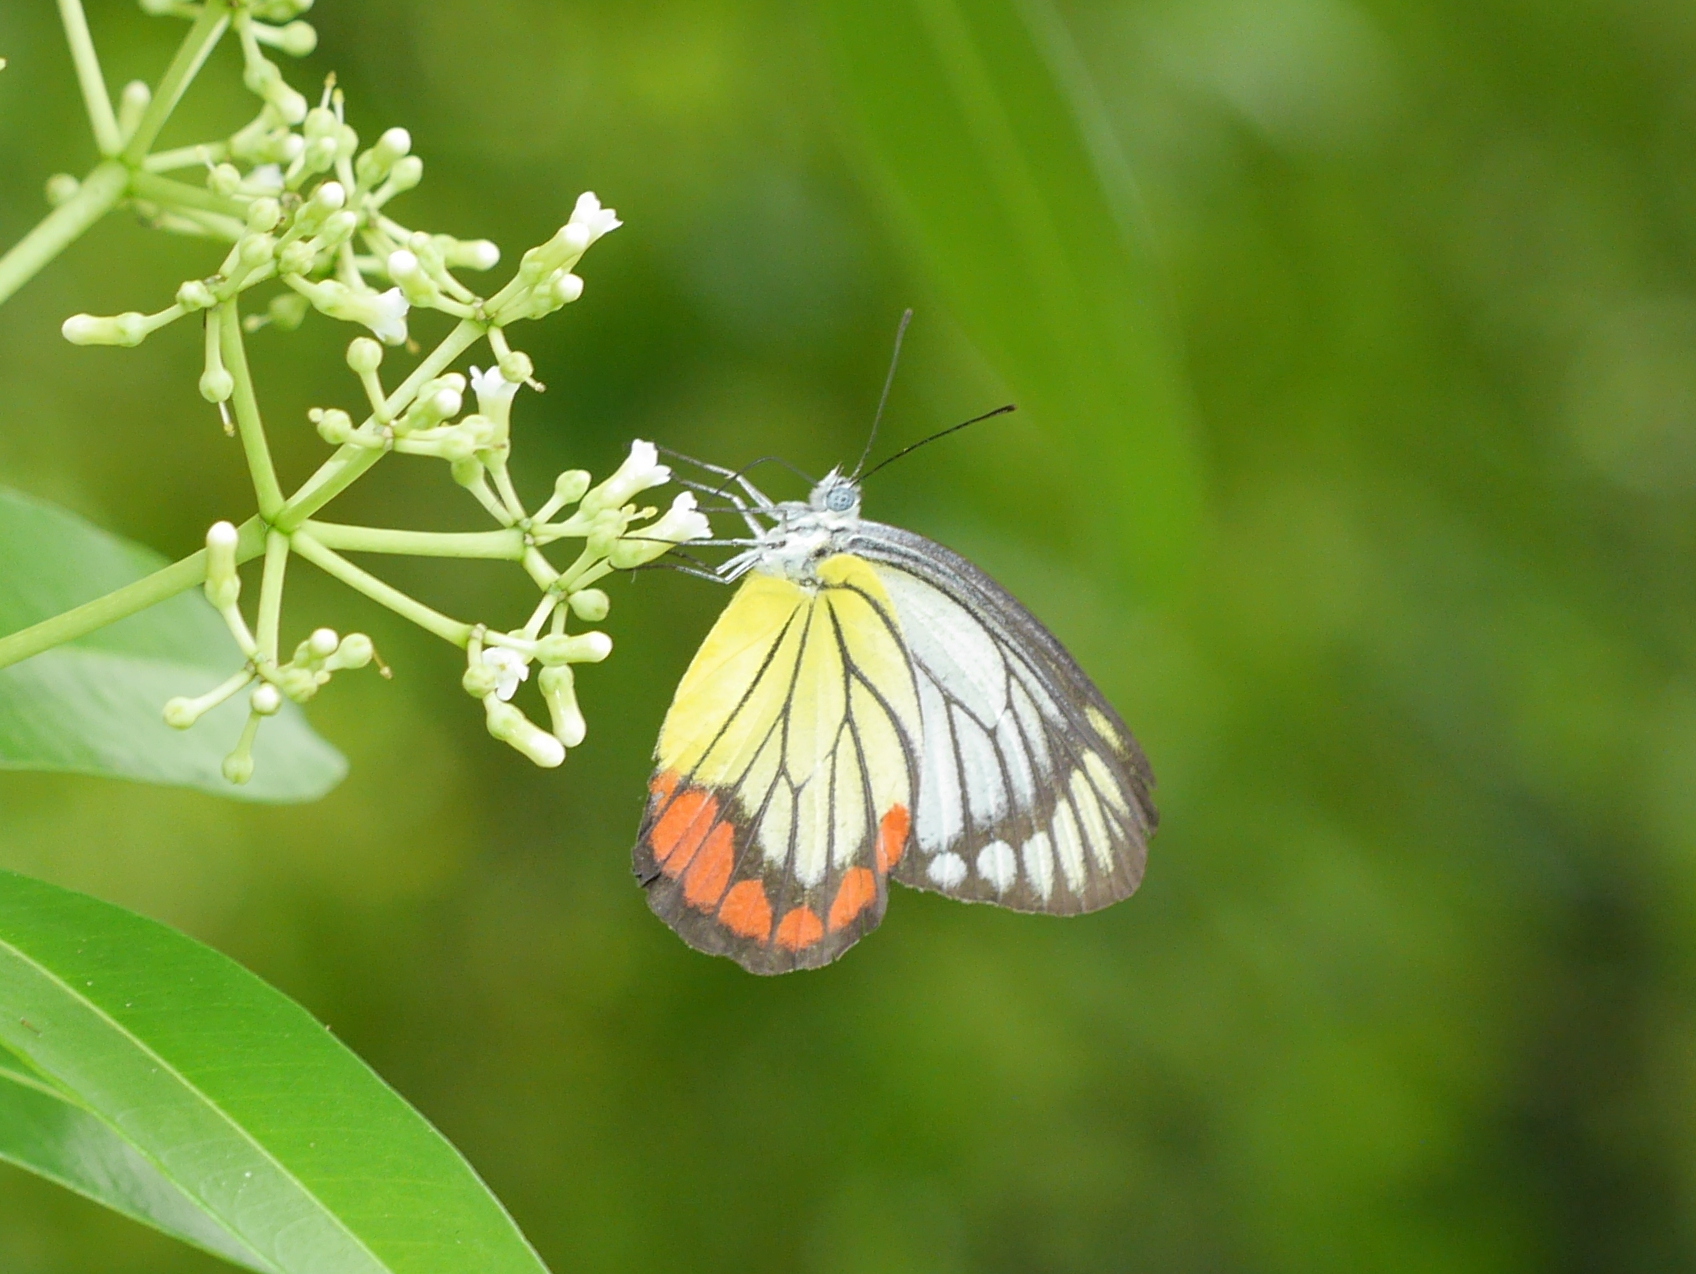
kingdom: Animalia
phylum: Arthropoda
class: Insecta
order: Lepidoptera
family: Pieridae
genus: Delias
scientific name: Delias hyparete
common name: Painted jezebel
